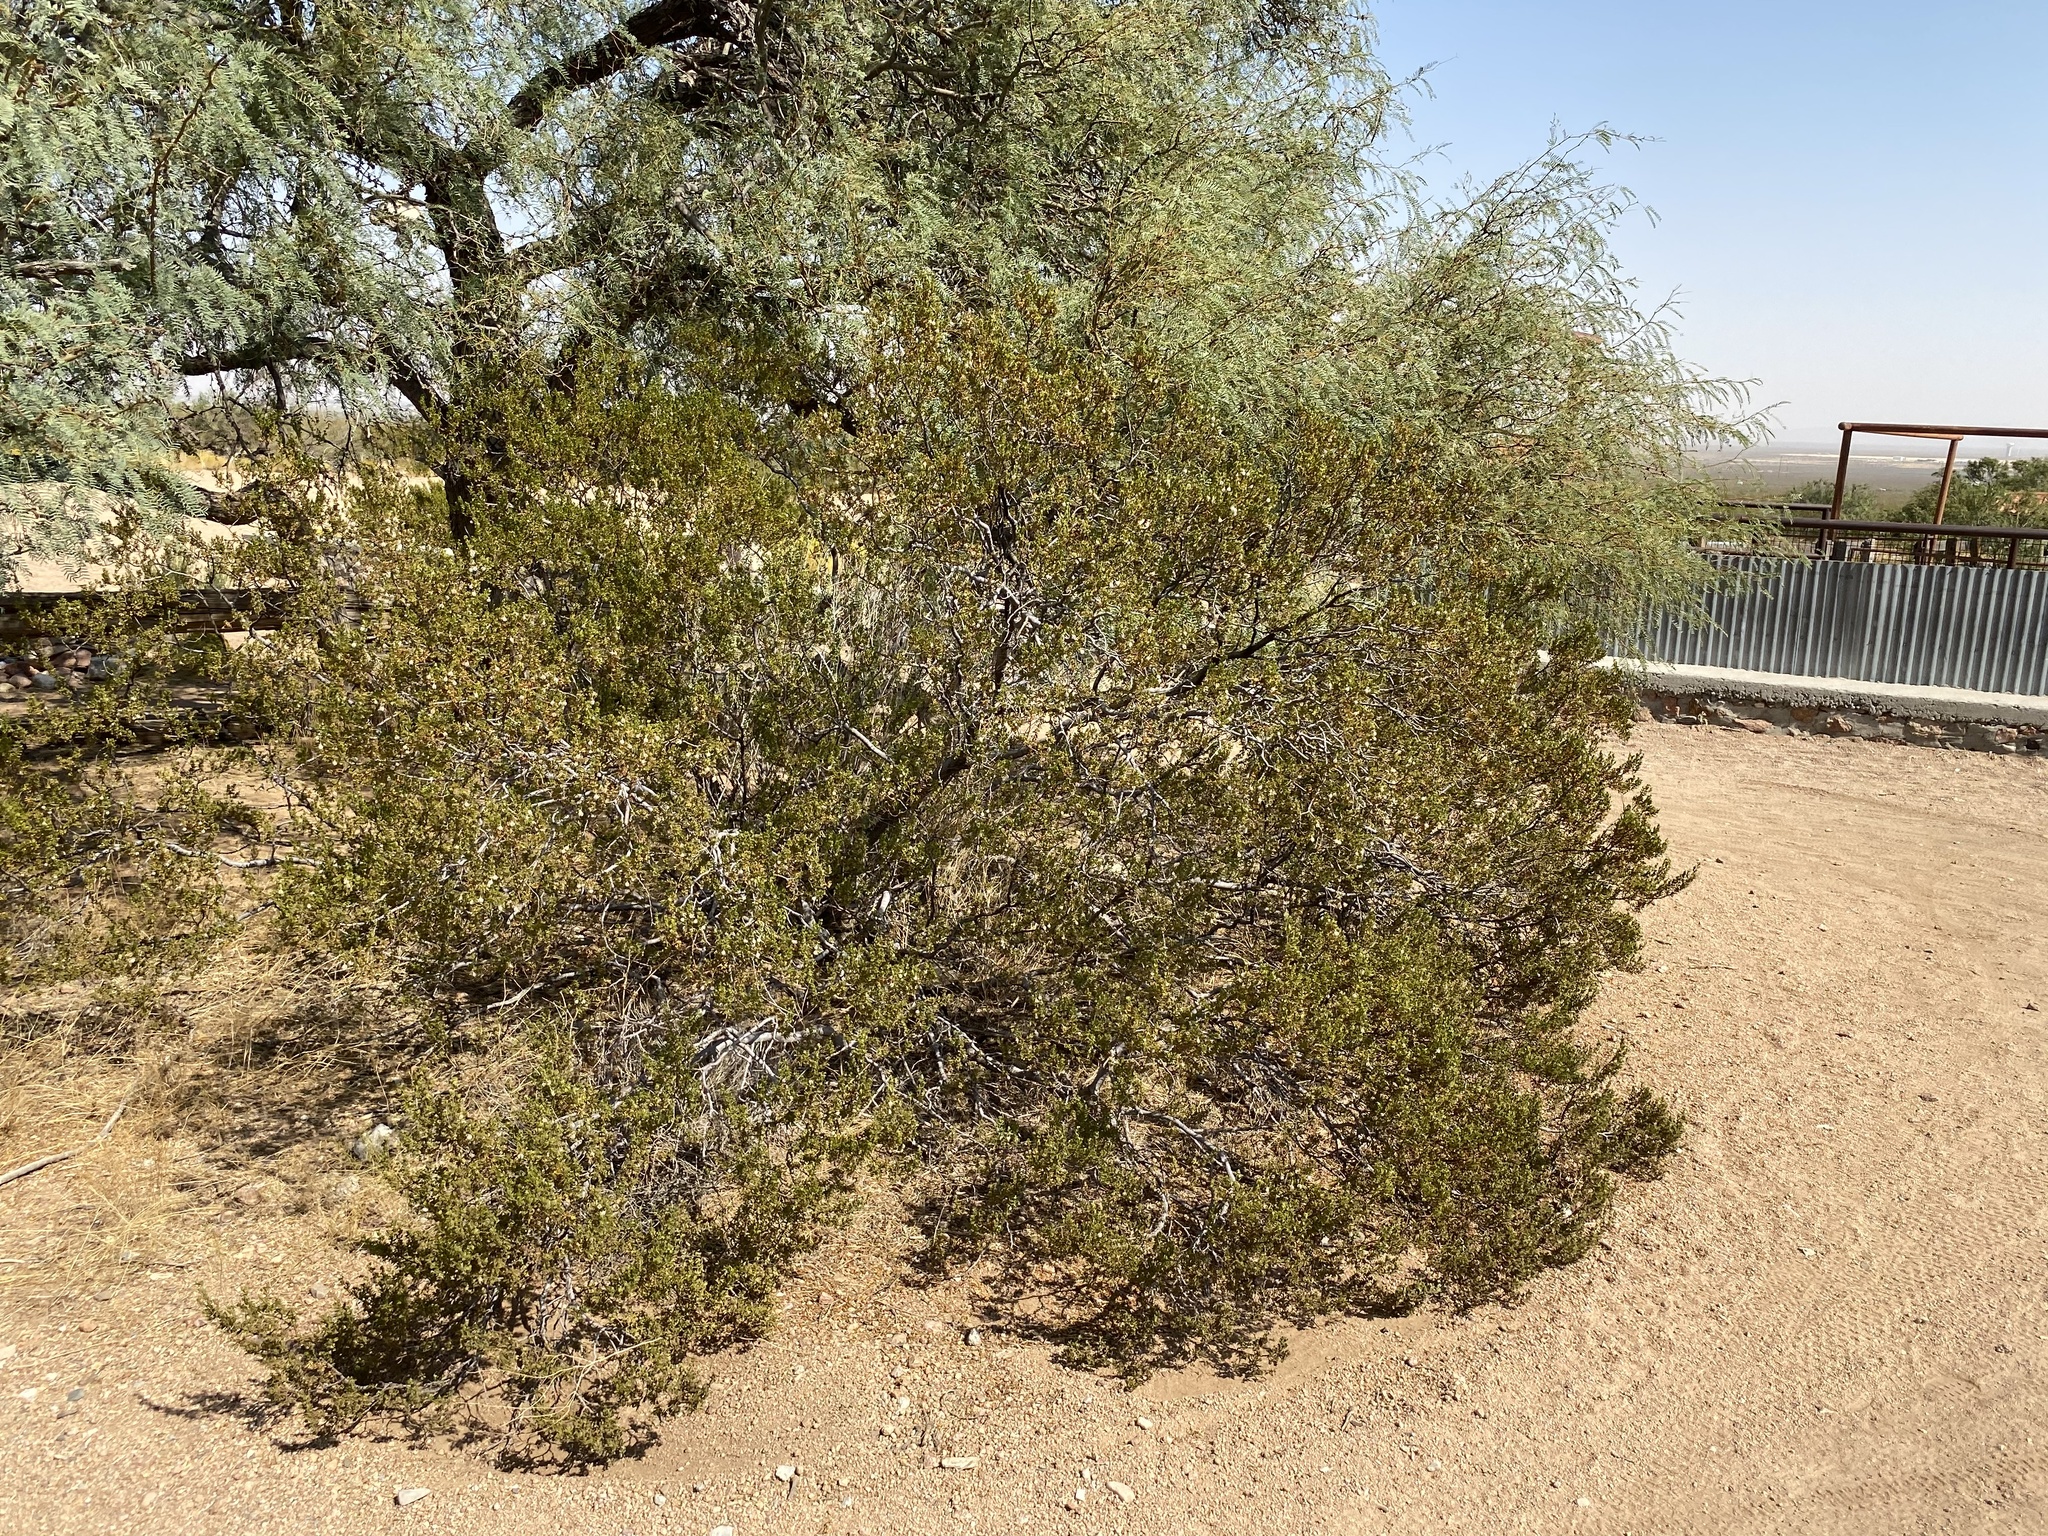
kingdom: Plantae
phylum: Tracheophyta
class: Magnoliopsida
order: Zygophyllales
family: Zygophyllaceae
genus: Larrea
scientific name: Larrea tridentata
